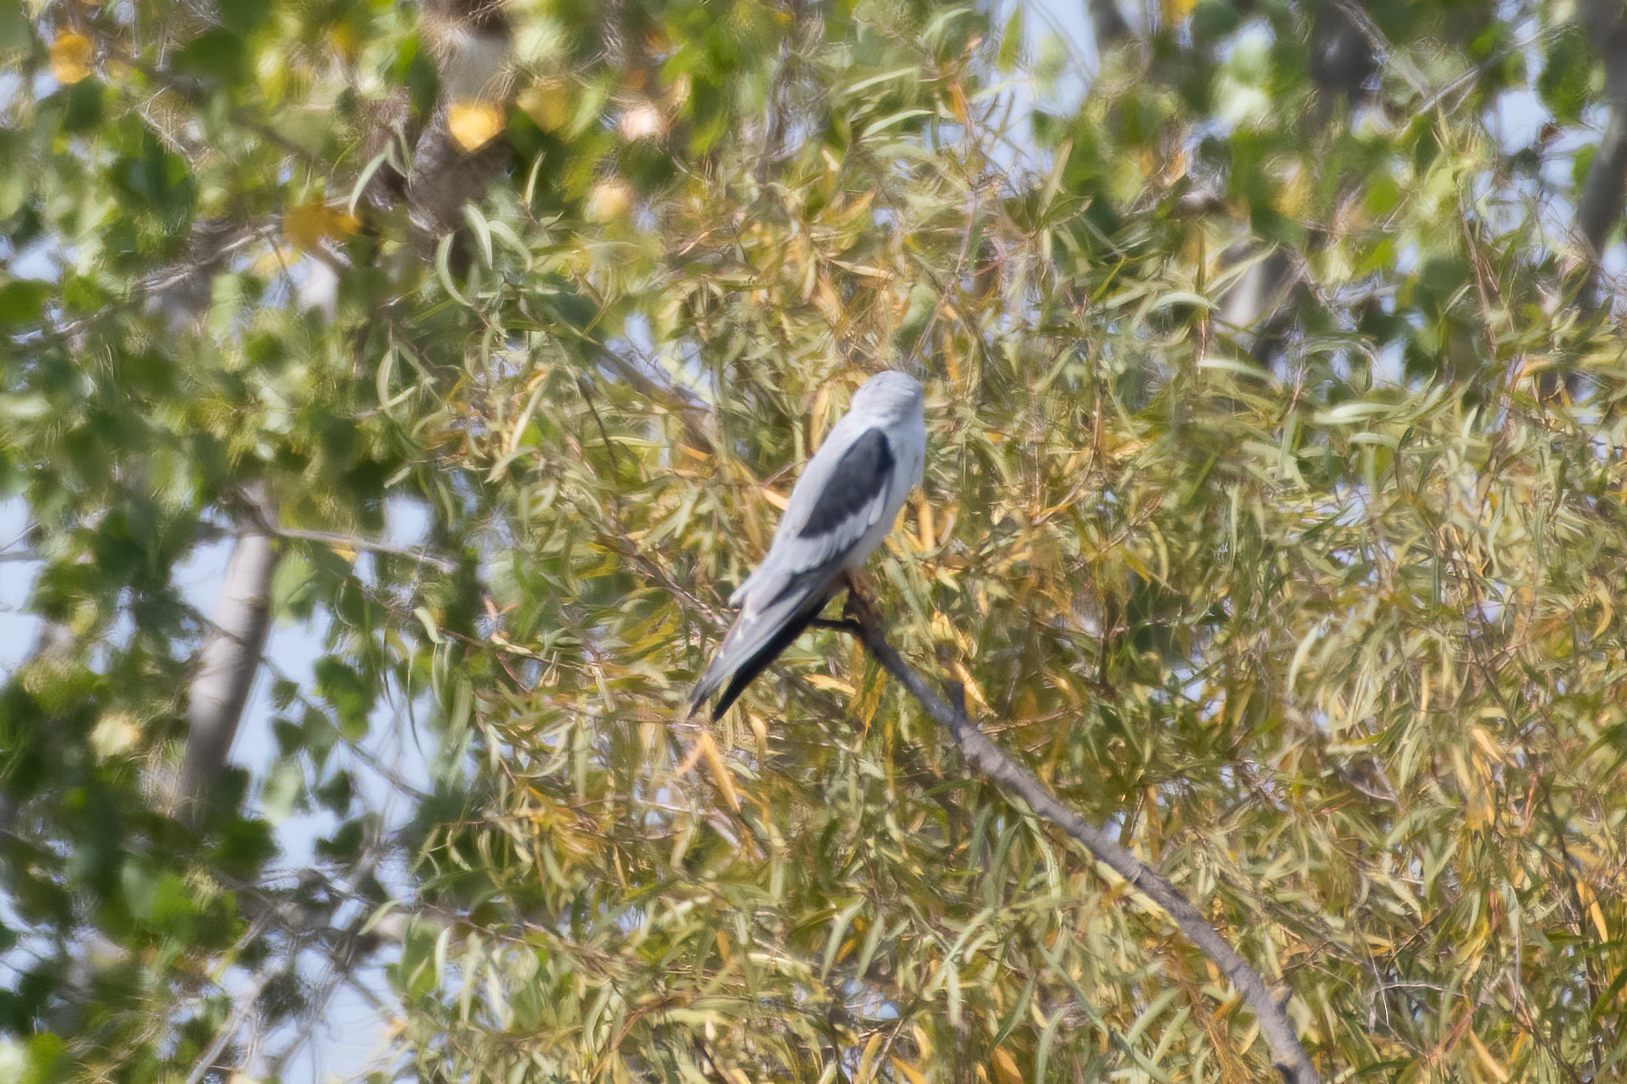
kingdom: Animalia
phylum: Chordata
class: Aves
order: Accipitriformes
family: Accipitridae
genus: Elanus
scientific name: Elanus leucurus
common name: White-tailed kite
